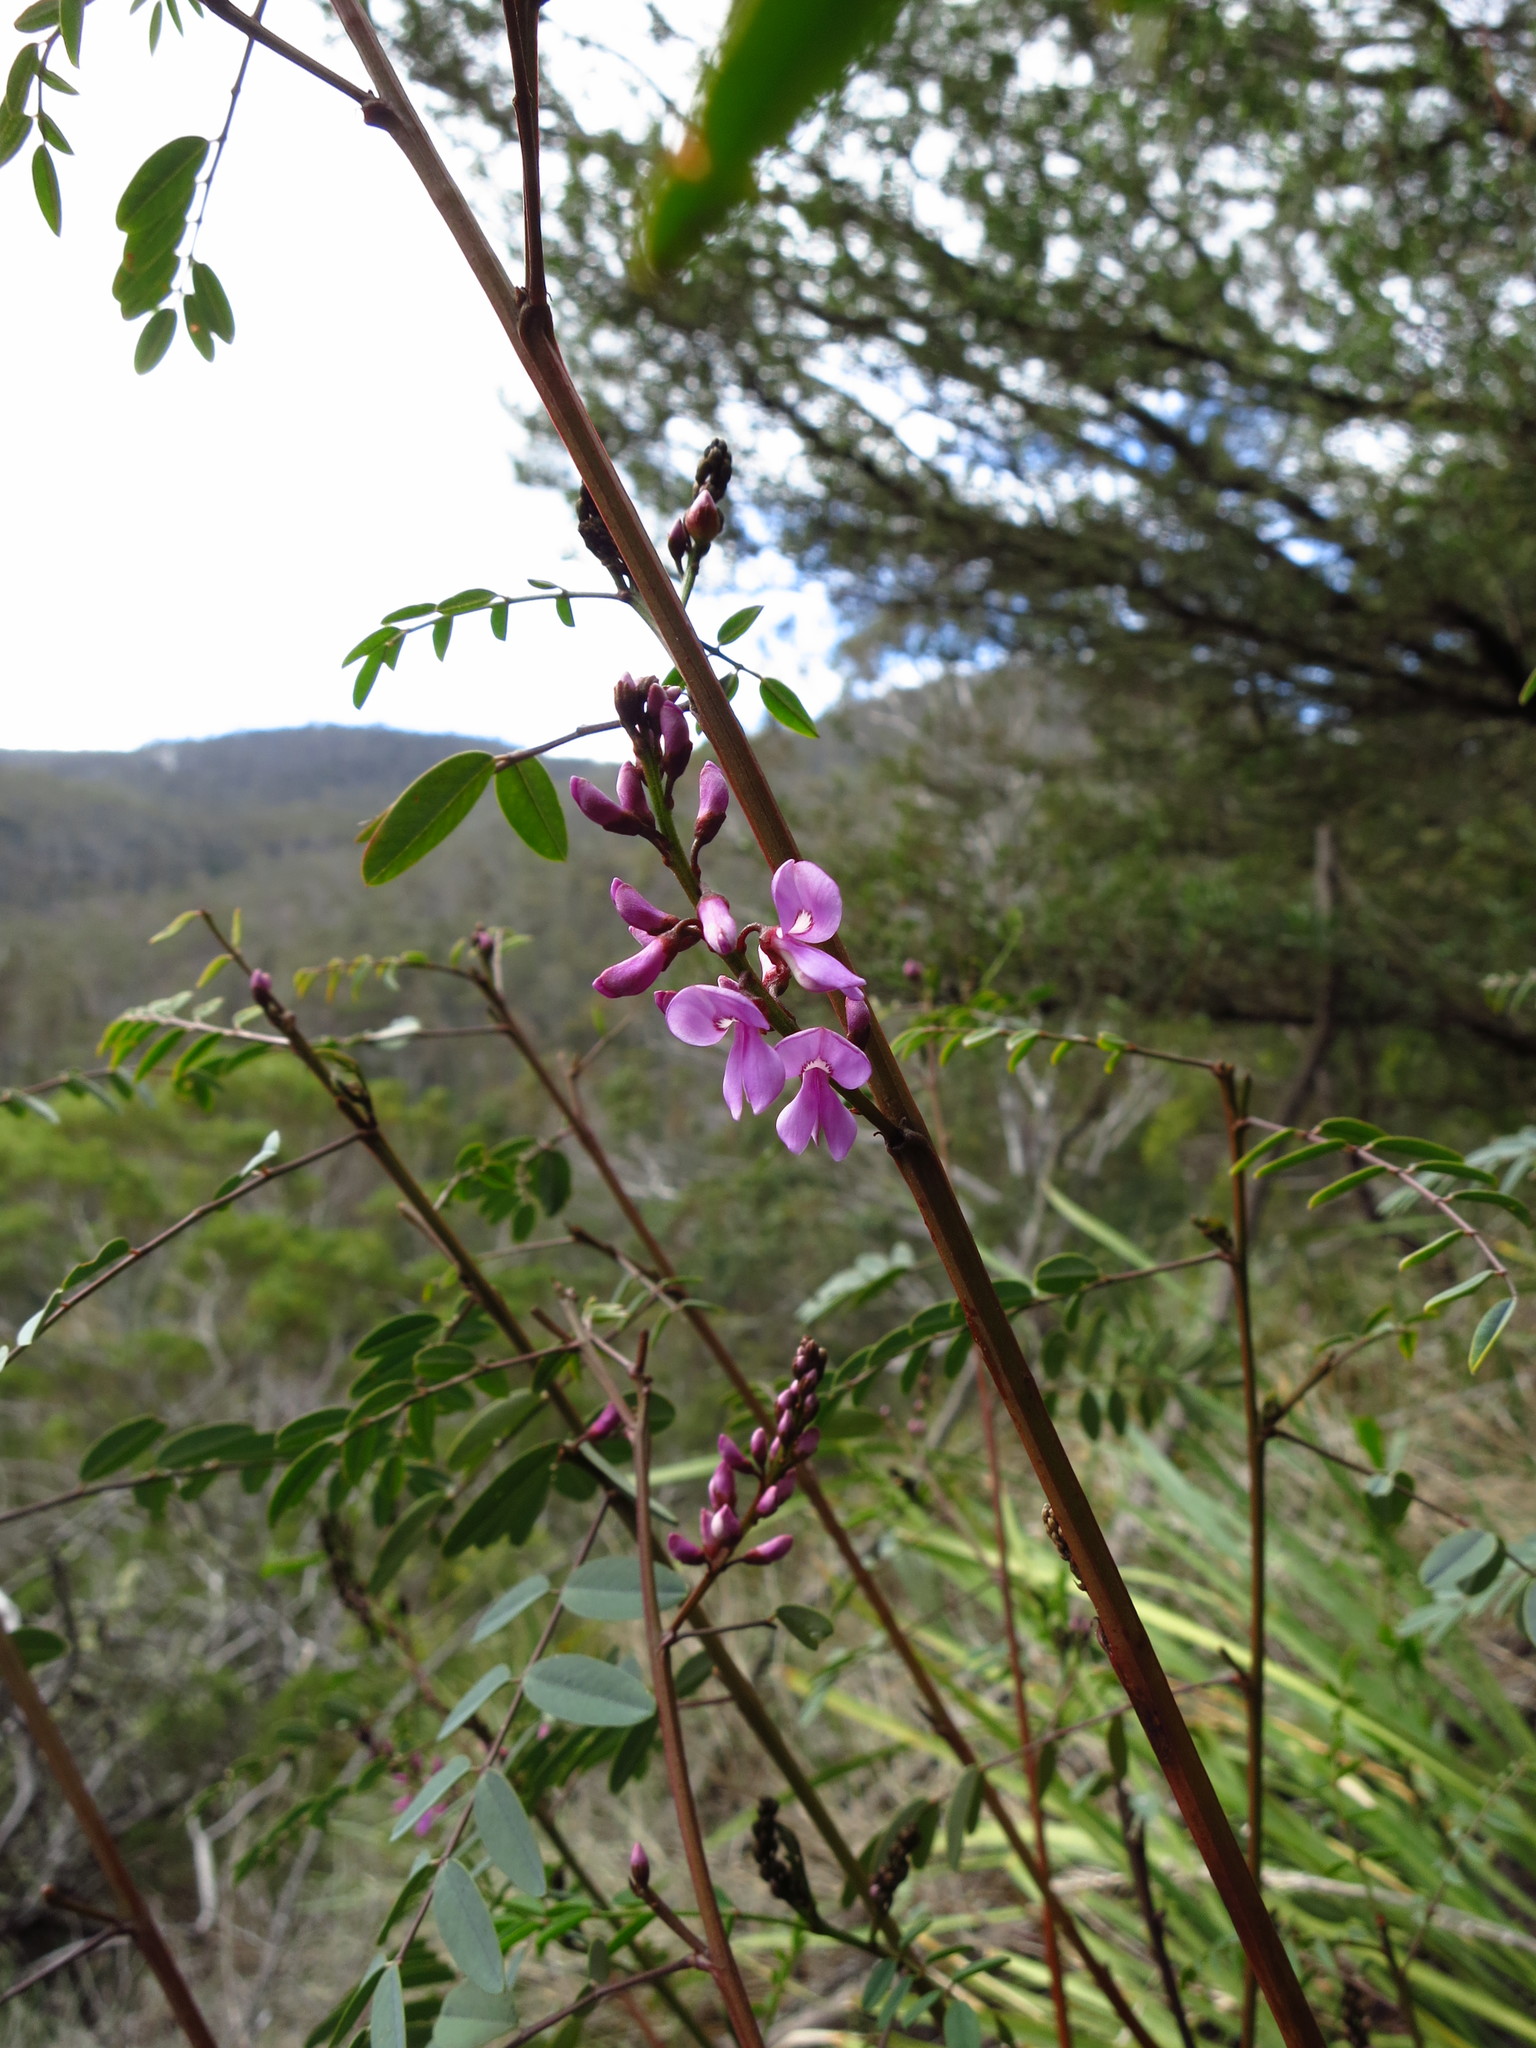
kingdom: Plantae
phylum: Tracheophyta
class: Magnoliopsida
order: Fabales
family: Fabaceae
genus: Indigofera
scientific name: Indigofera australis
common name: Australian indigo
